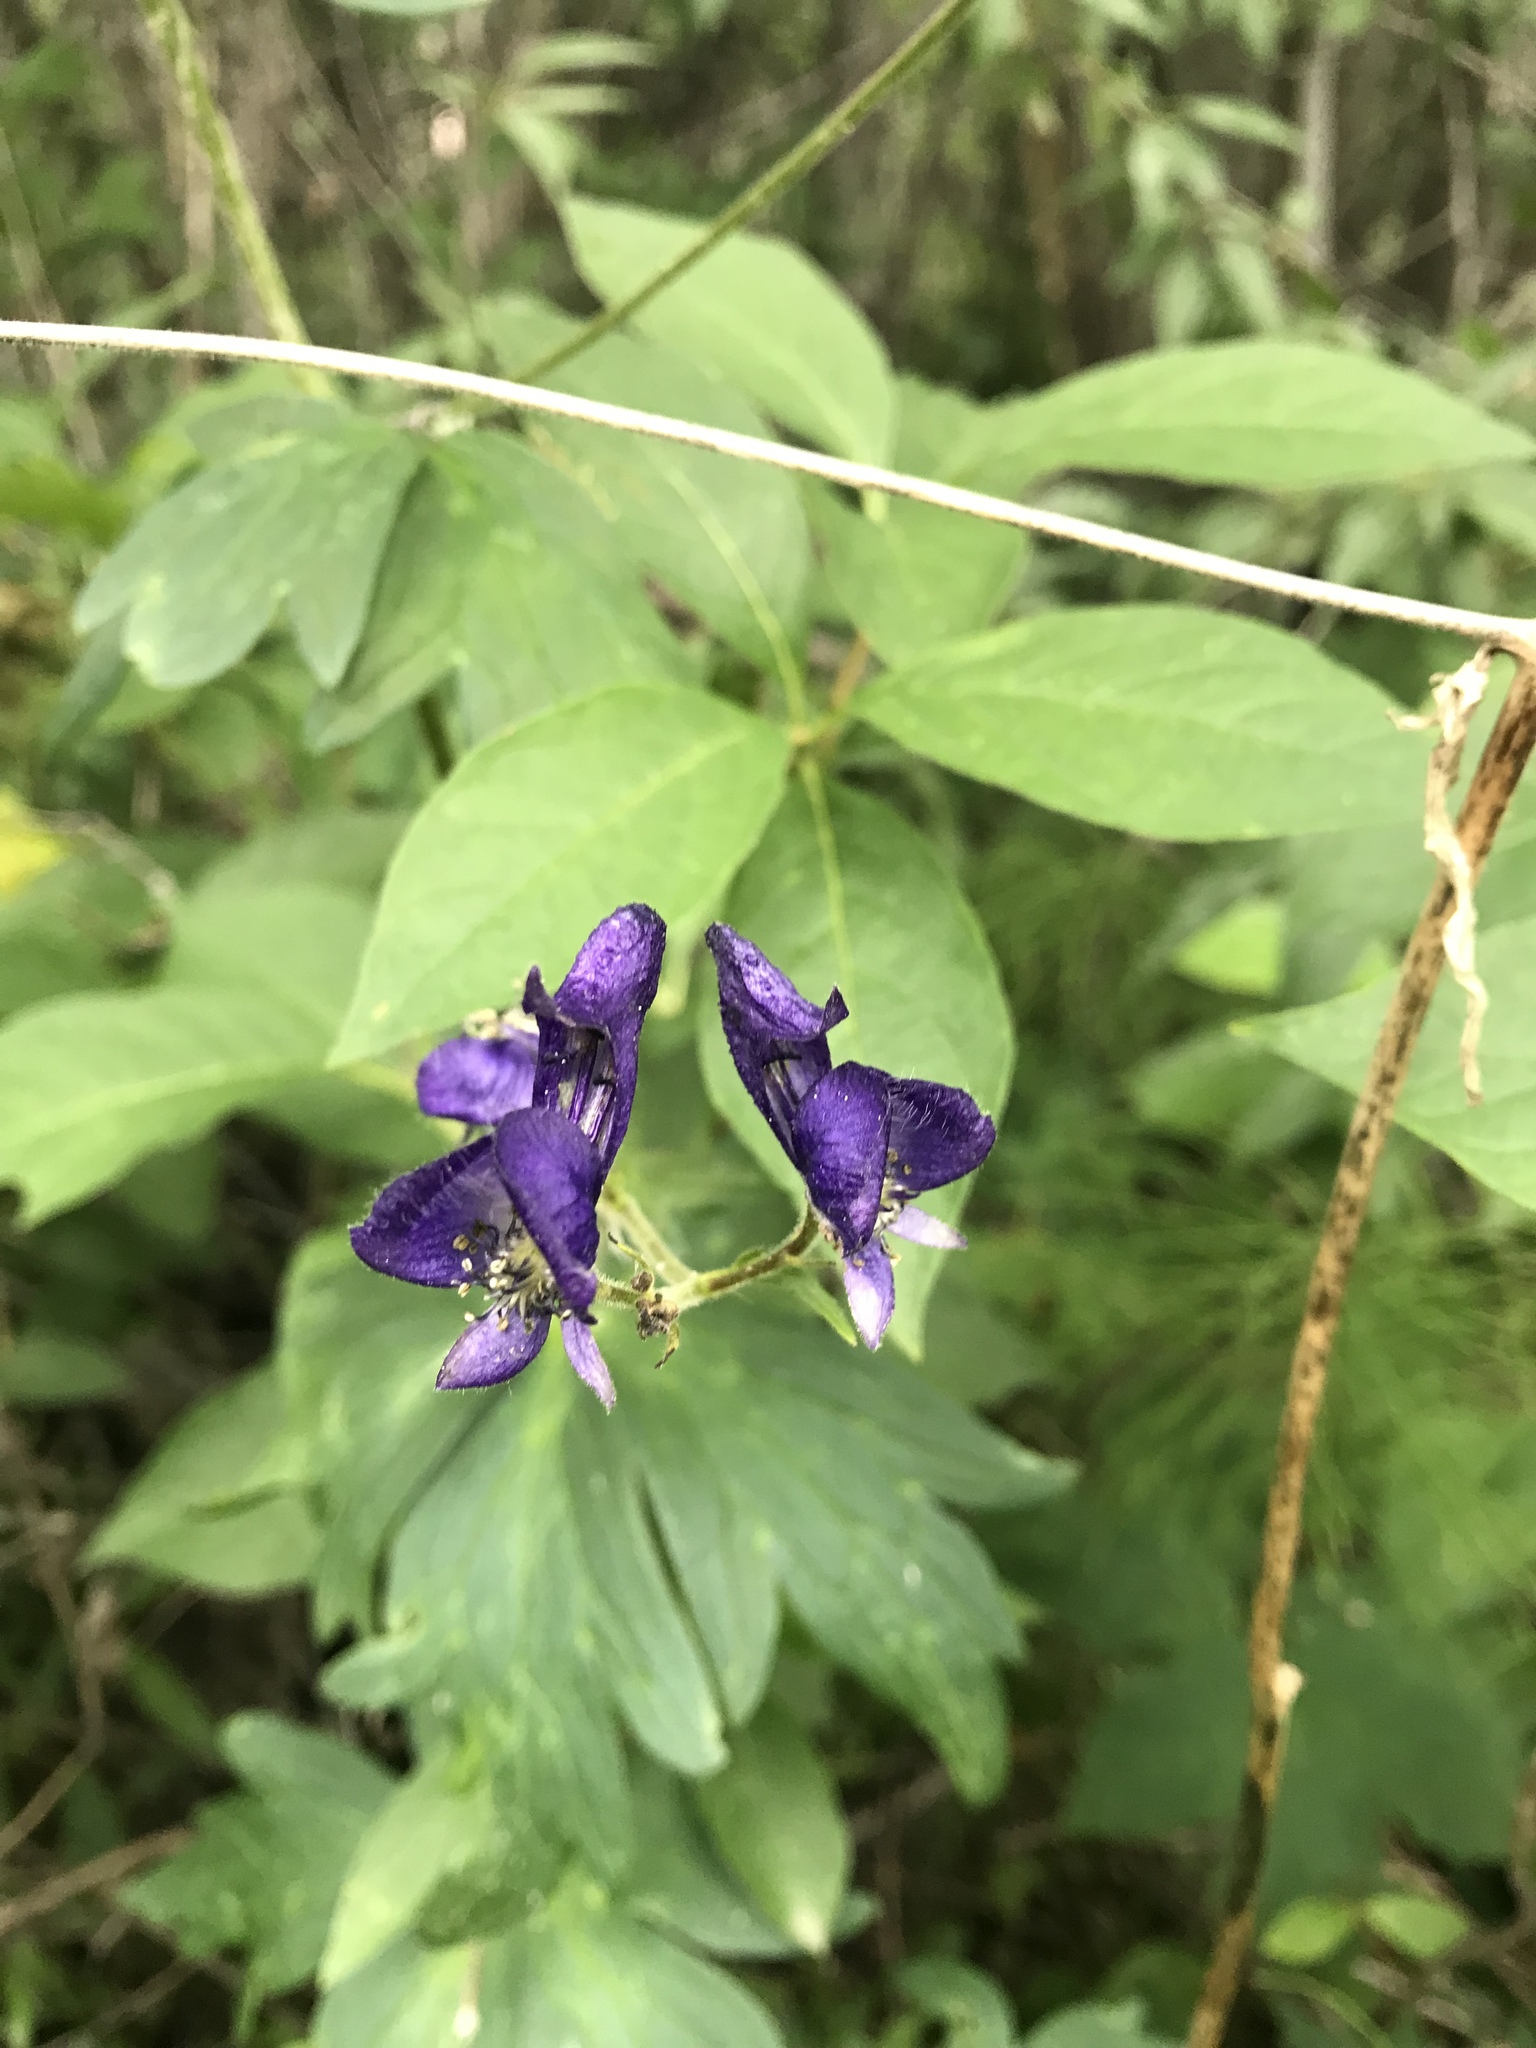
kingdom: Plantae
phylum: Tracheophyta
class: Magnoliopsida
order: Ranunculales
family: Ranunculaceae
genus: Aconitum
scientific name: Aconitum columbianum
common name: Columbia aconite
